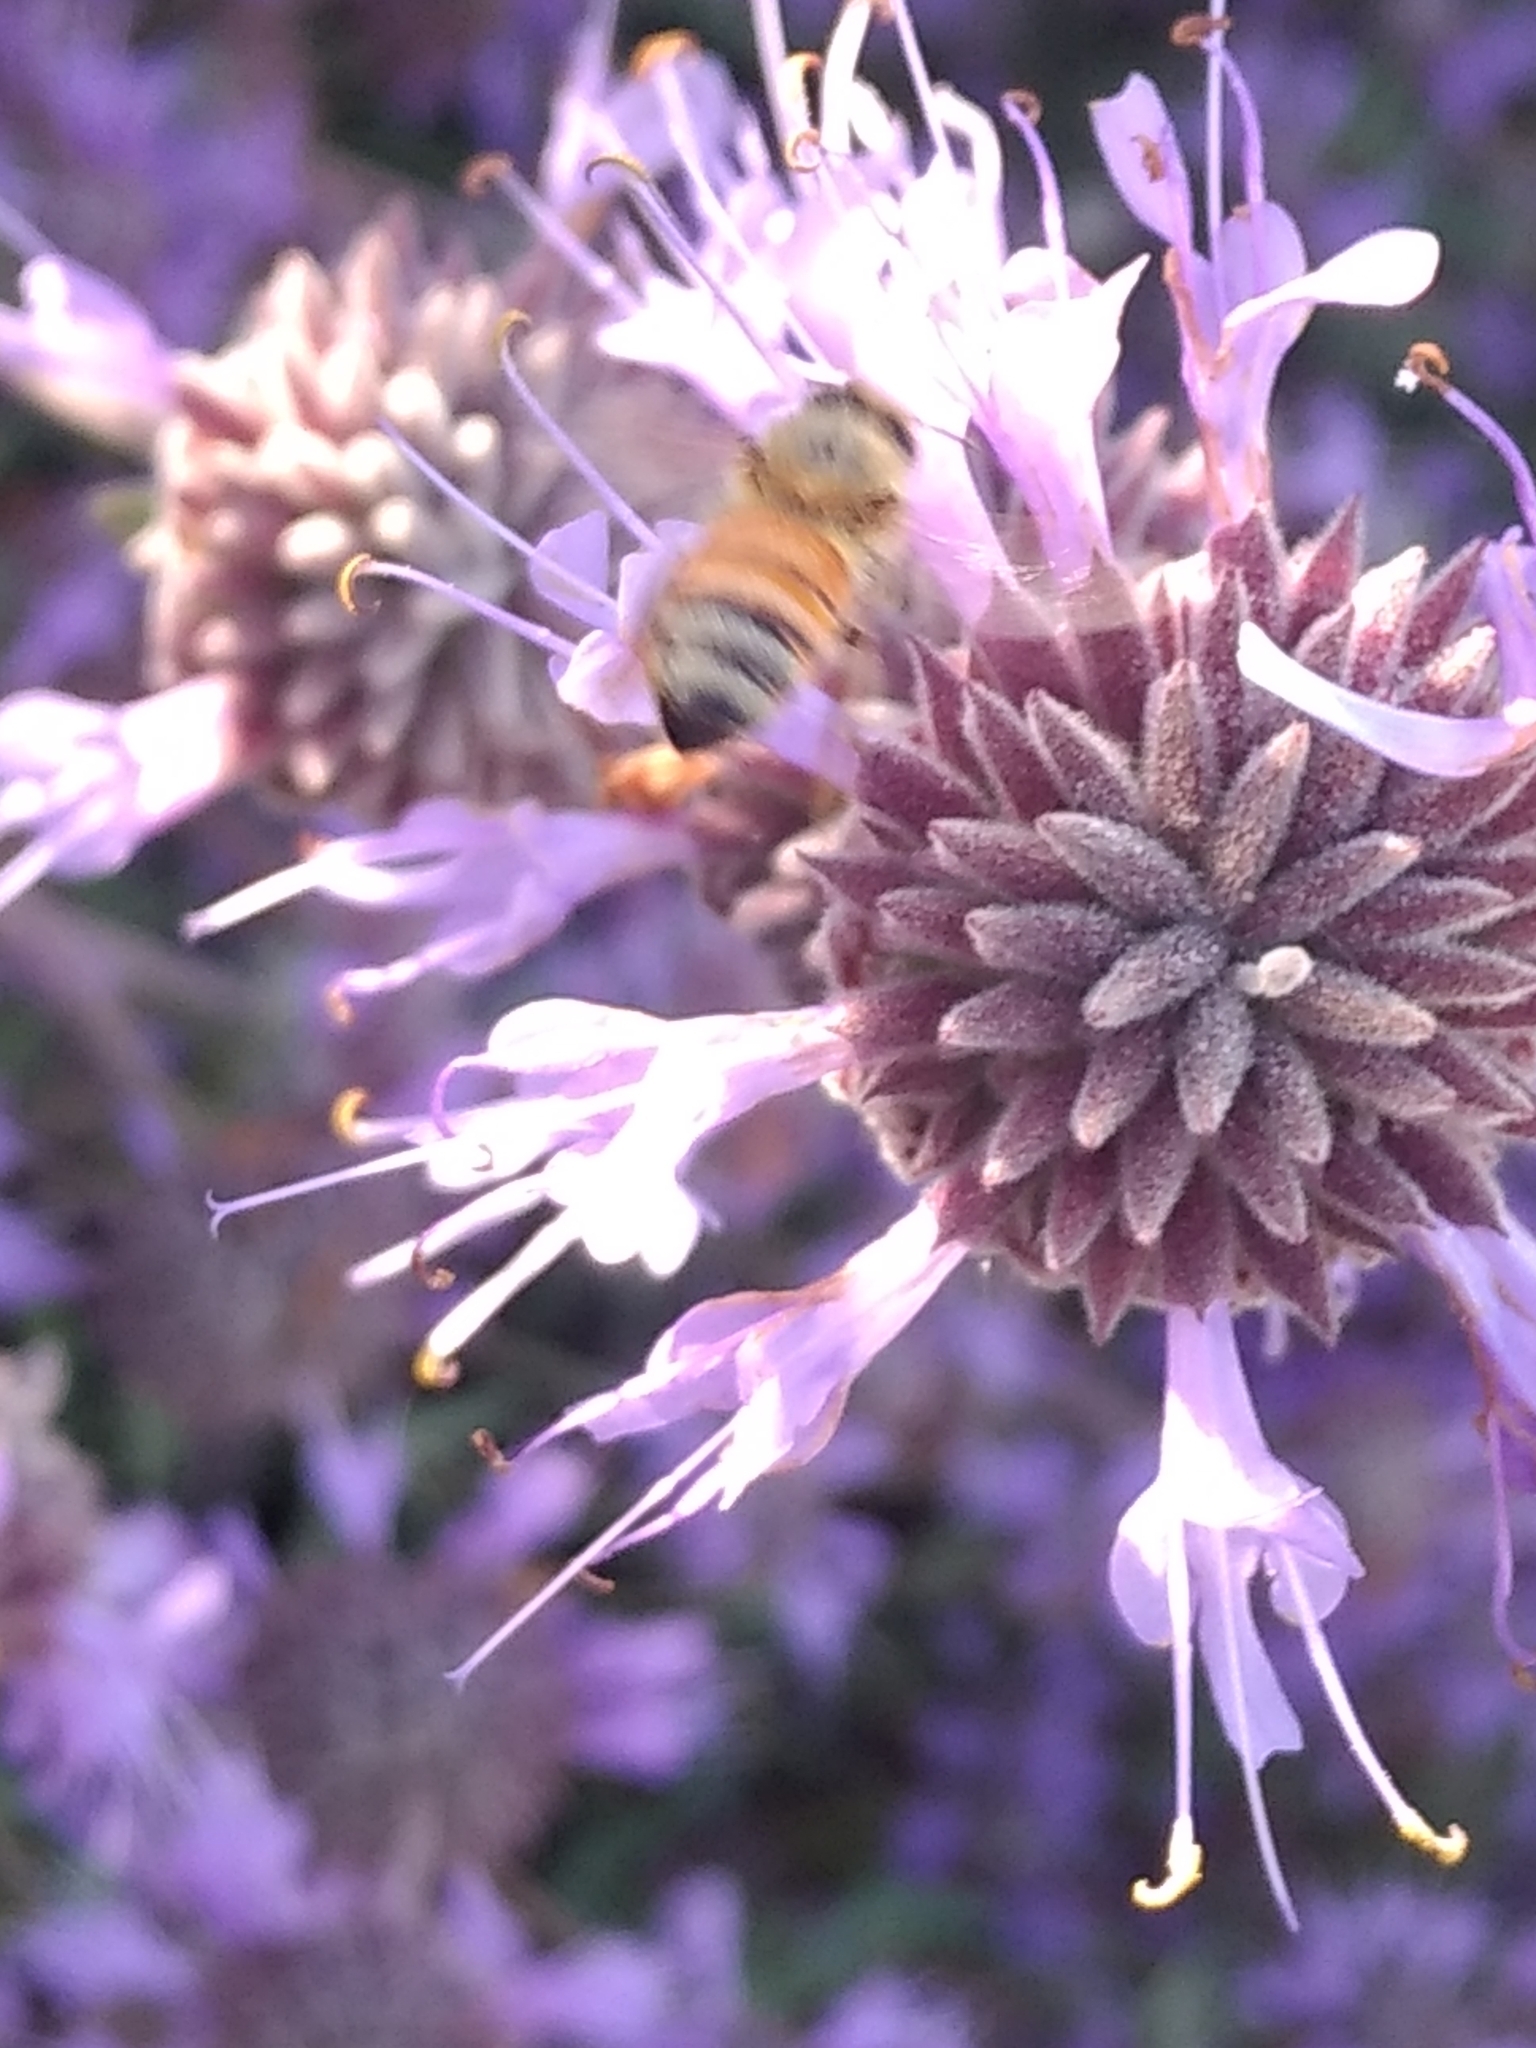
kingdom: Animalia
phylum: Arthropoda
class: Insecta
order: Hymenoptera
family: Apidae
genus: Apis
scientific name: Apis mellifera
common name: Honey bee
